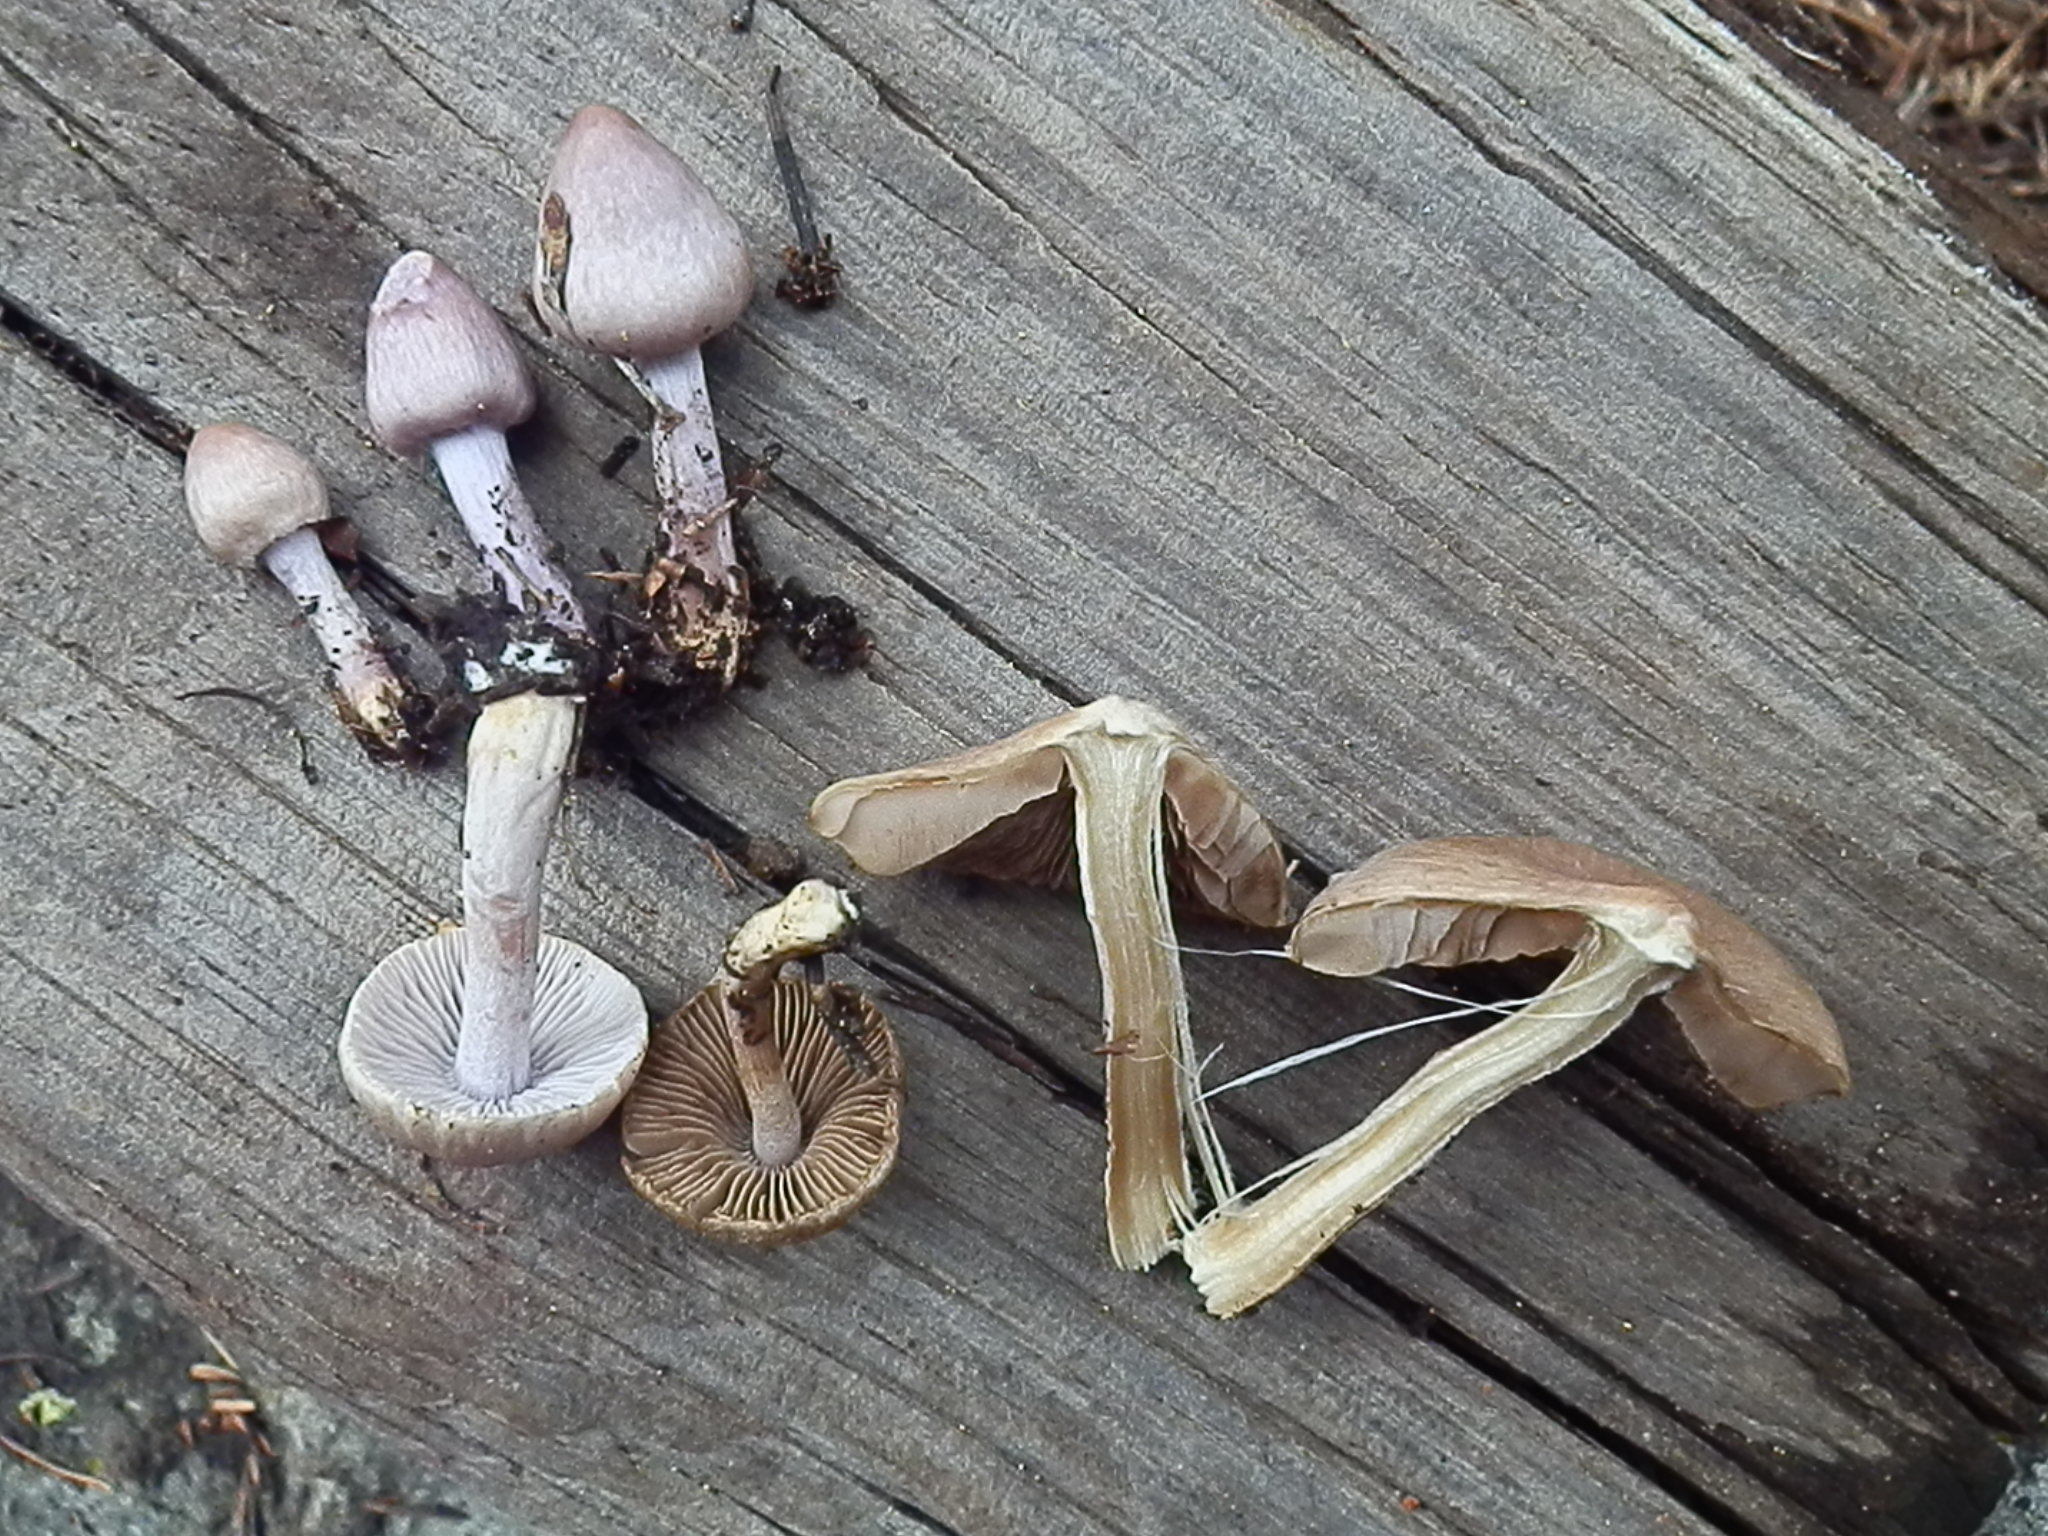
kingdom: Fungi
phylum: Basidiomycota
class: Agaricomycetes
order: Agaricales
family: Inocybaceae
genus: Inocybe
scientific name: Inocybe pallidicremea
